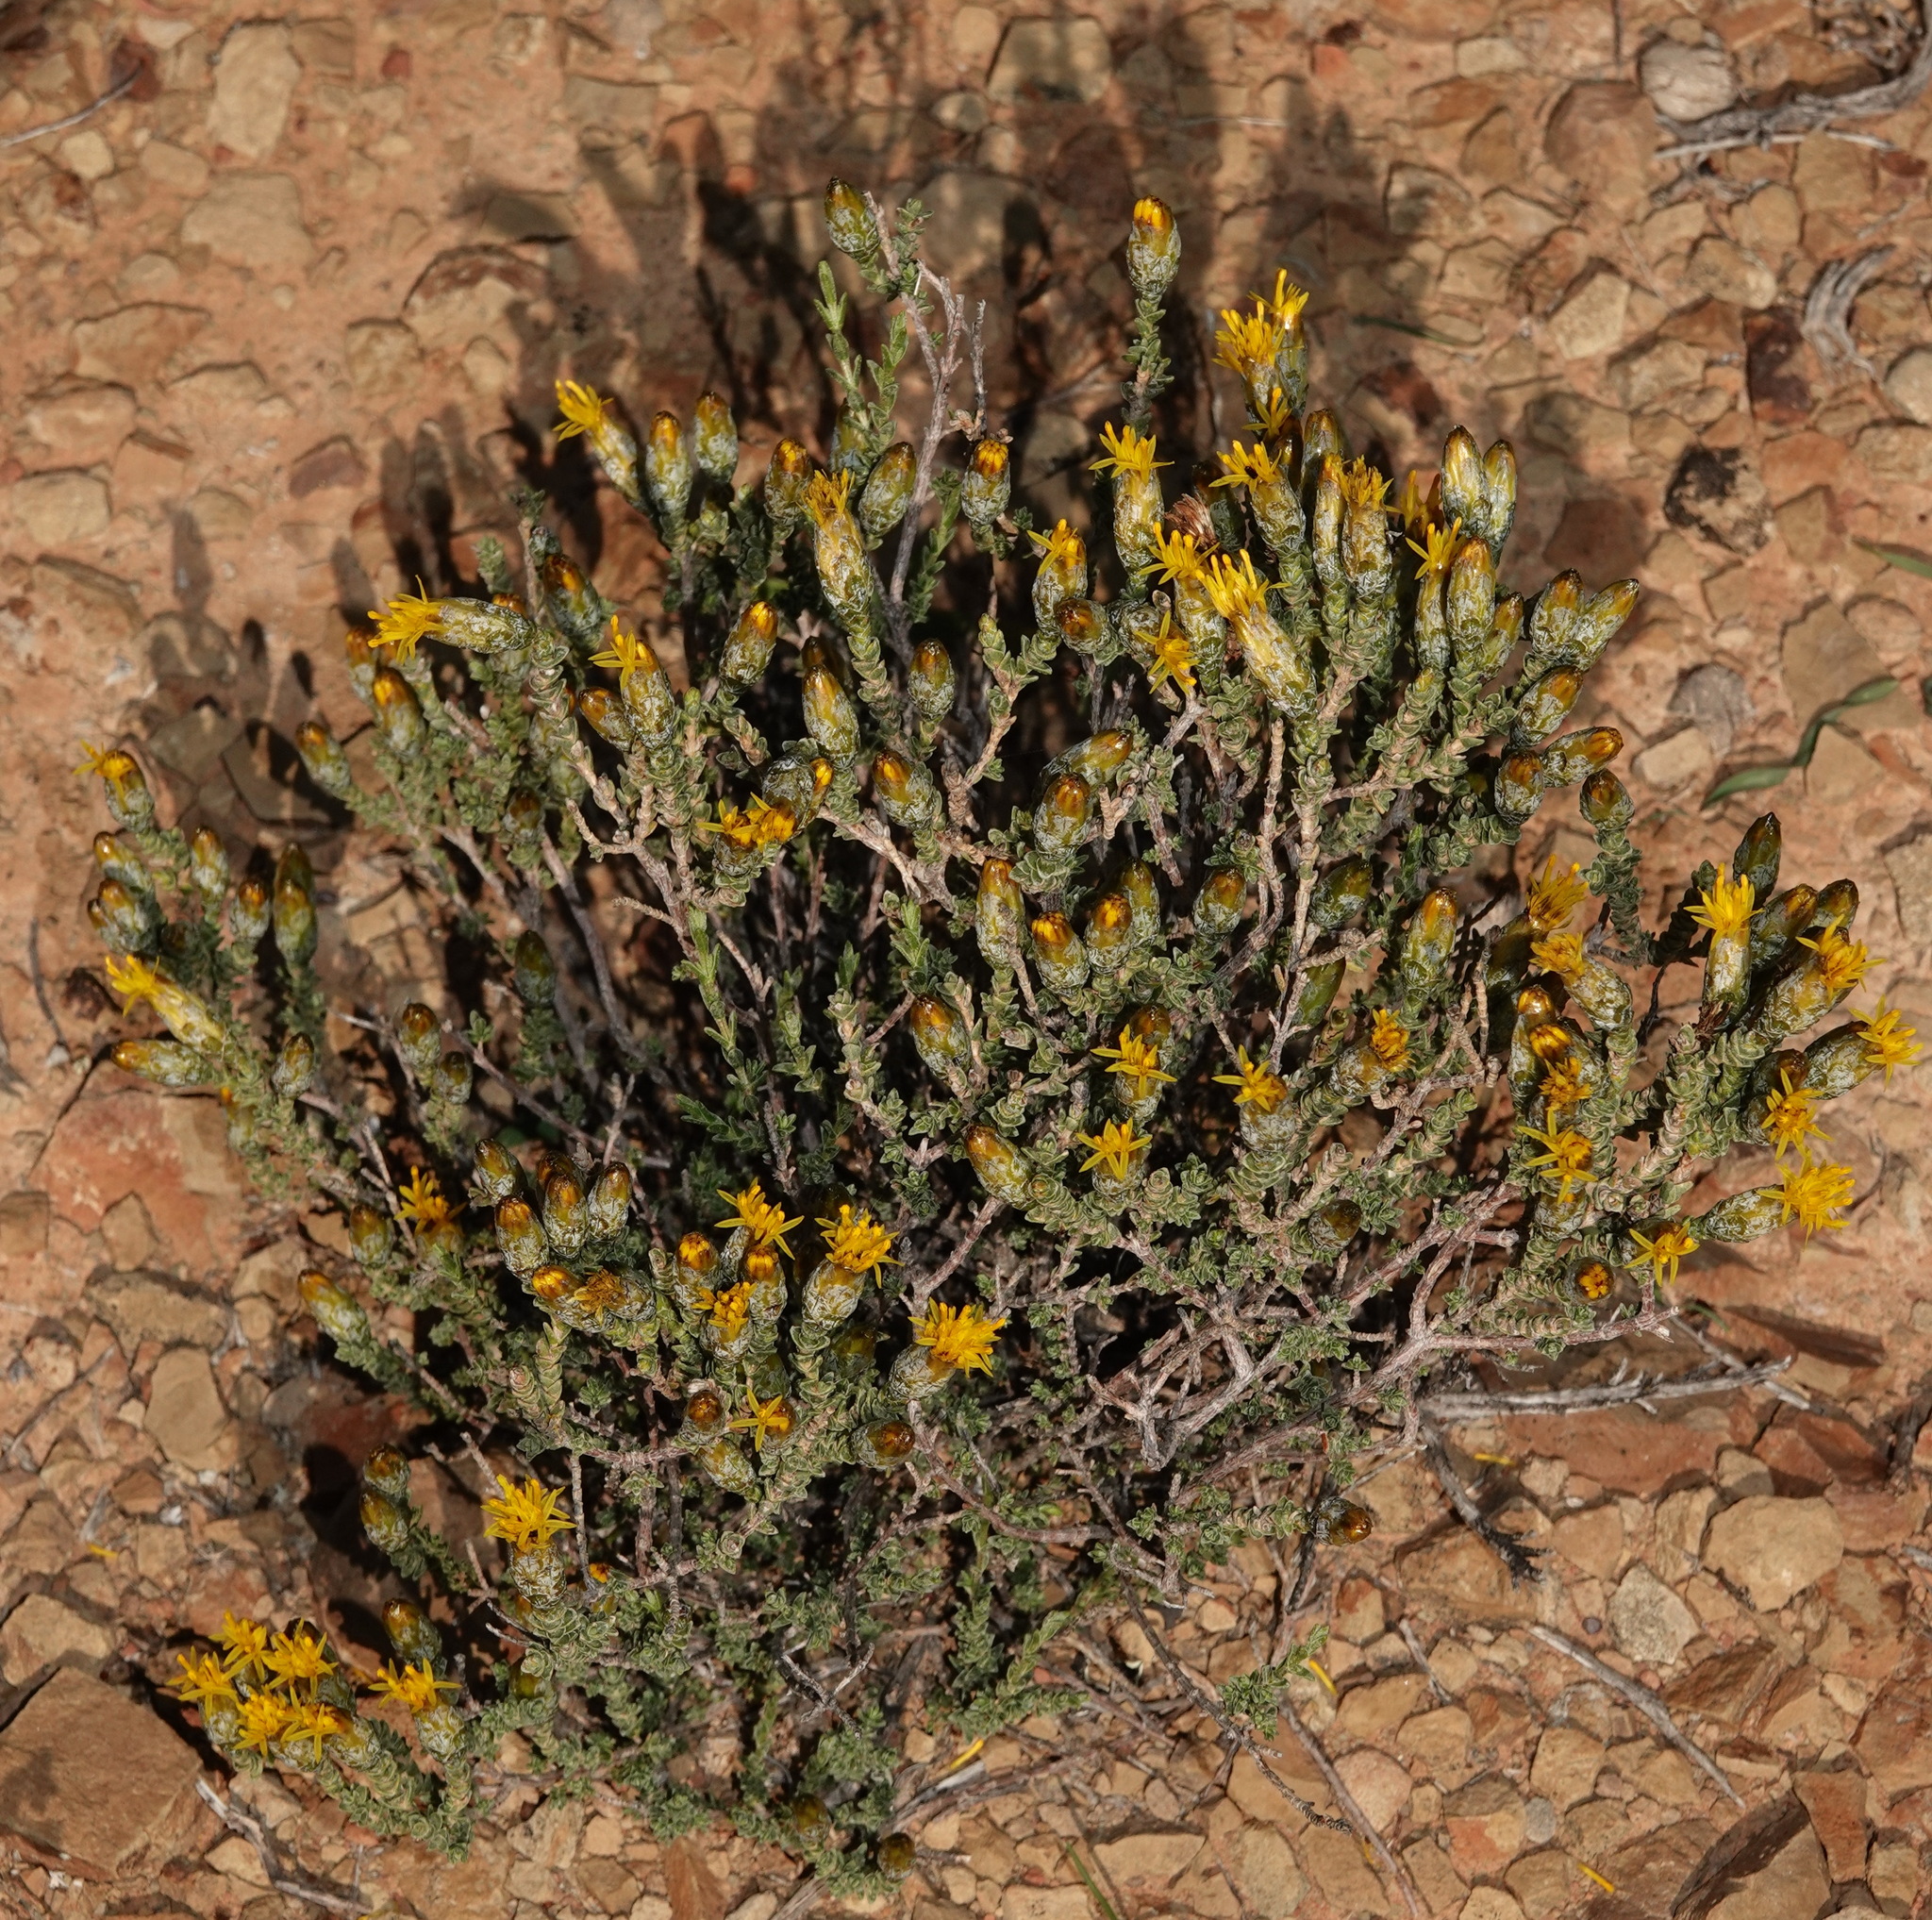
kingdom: Plantae
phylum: Tracheophyta
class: Magnoliopsida
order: Asterales
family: Asteraceae
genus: Pteronia
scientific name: Pteronia glomerata
